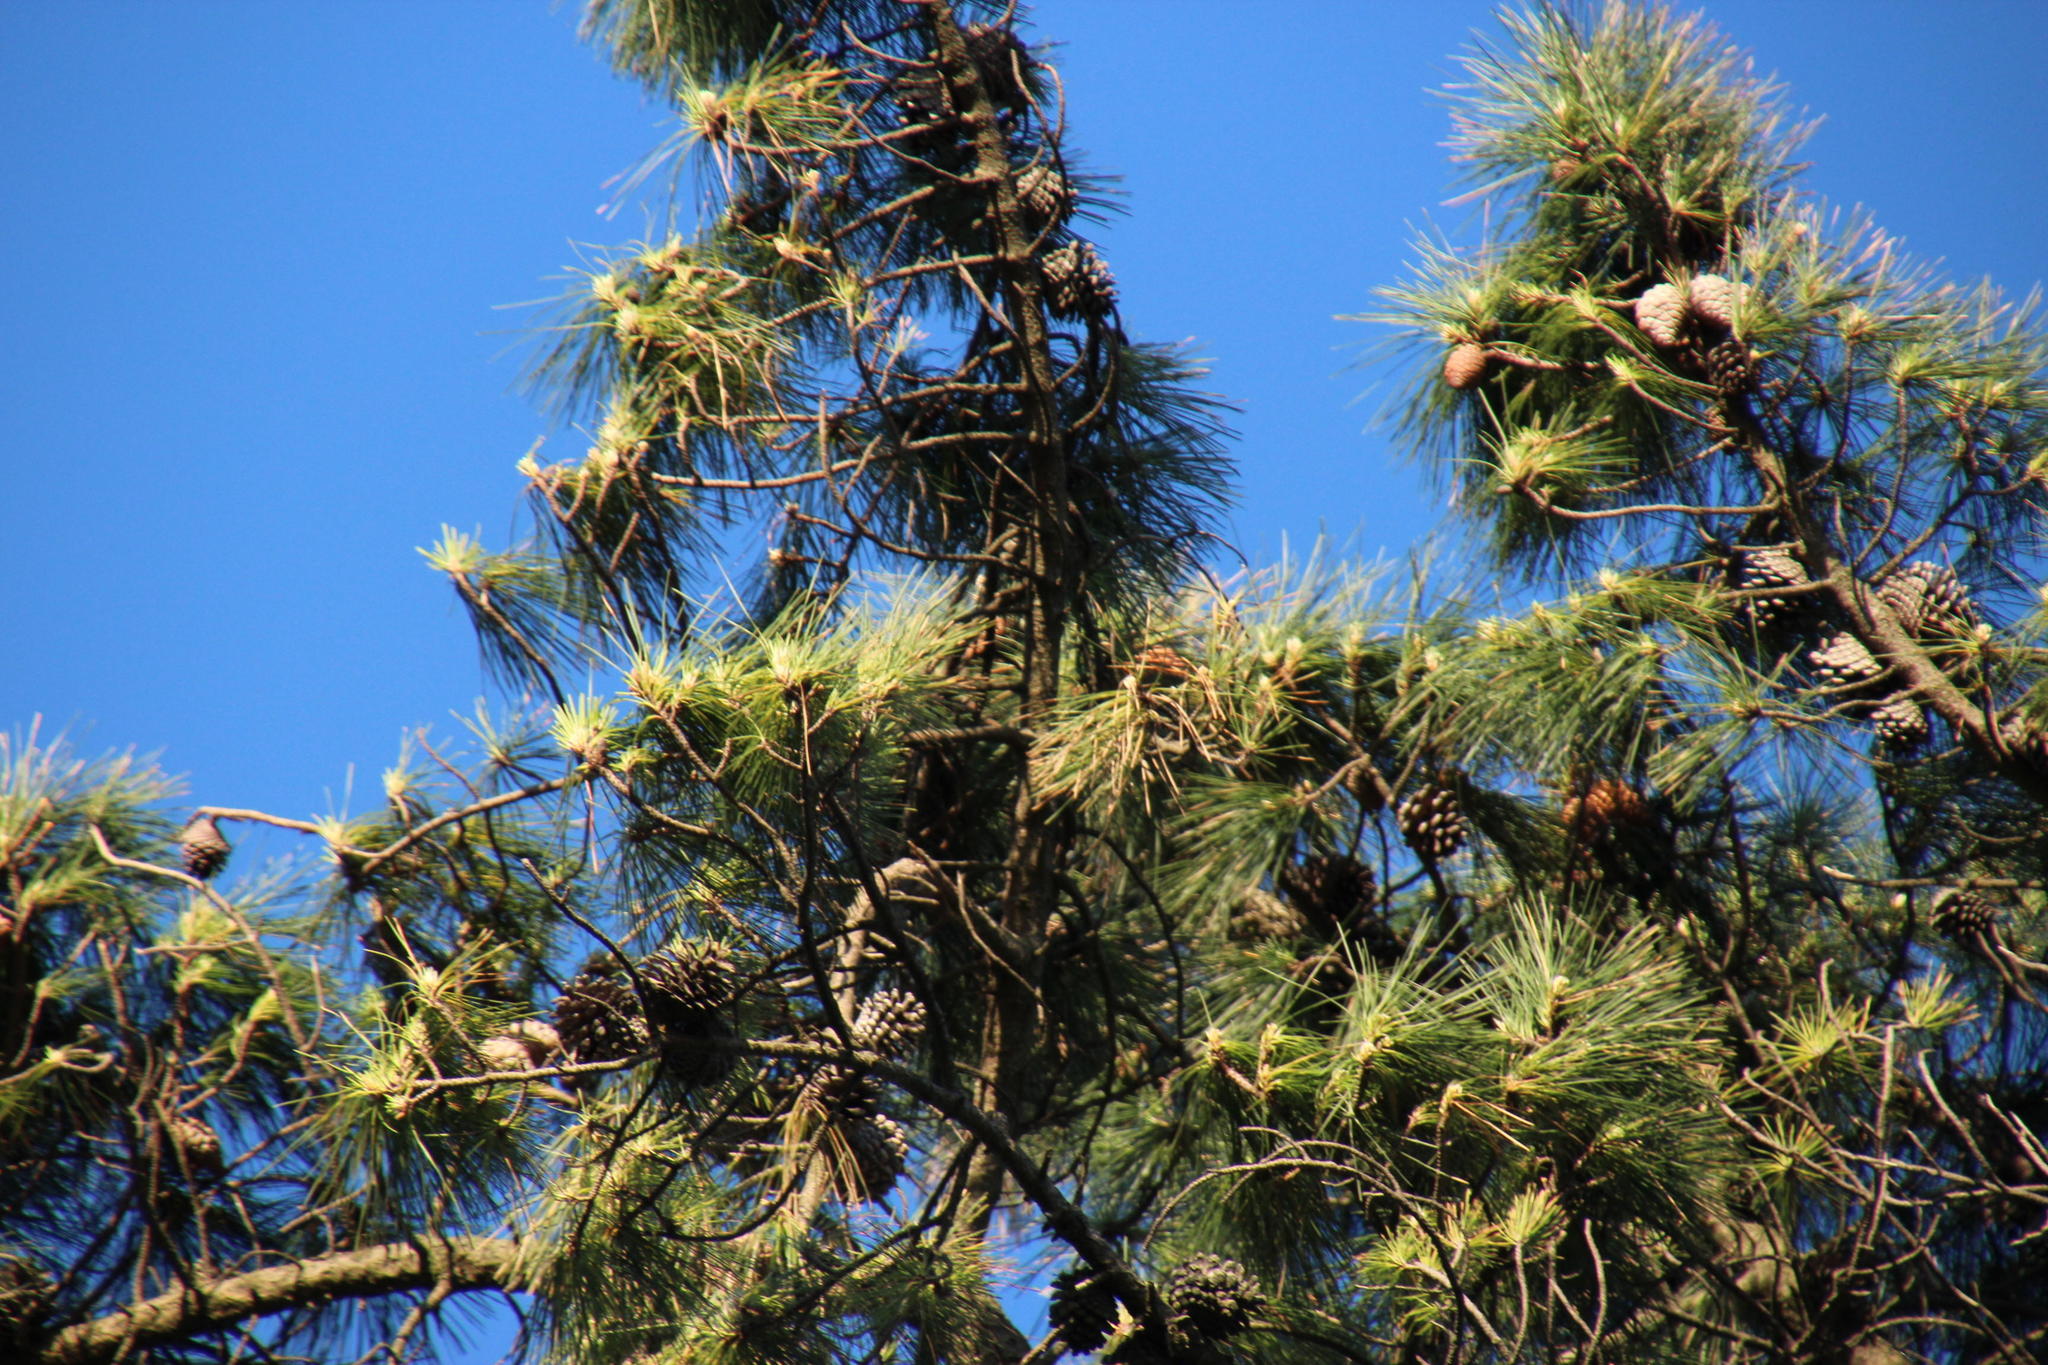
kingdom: Plantae
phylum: Tracheophyta
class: Pinopsida
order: Pinales
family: Pinaceae
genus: Pinus
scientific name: Pinus radiata
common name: Monterey pine
